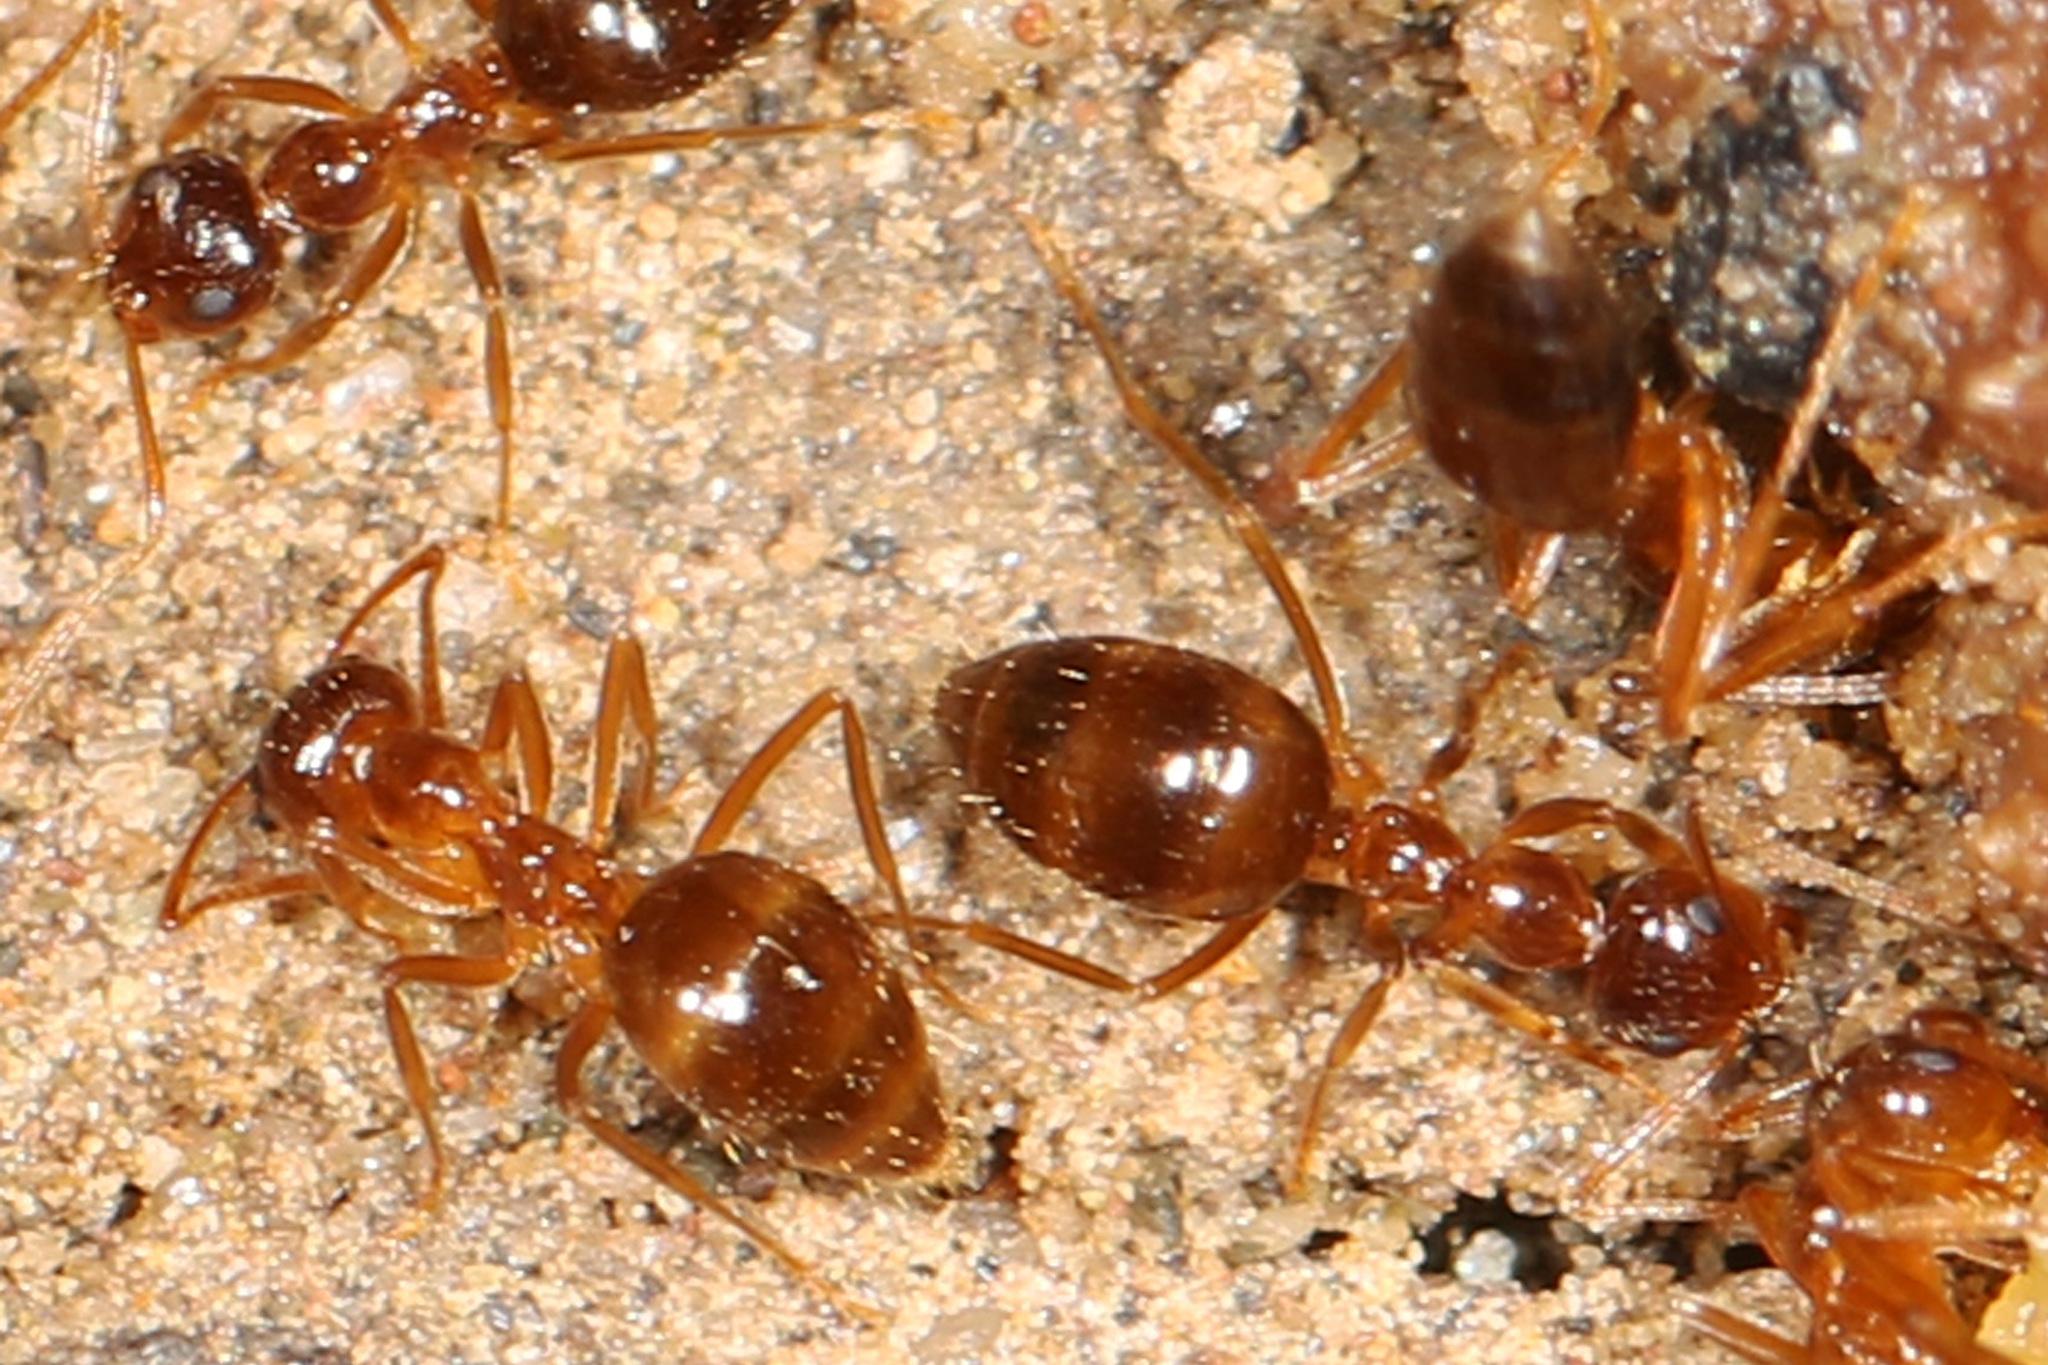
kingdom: Animalia
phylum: Arthropoda
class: Insecta
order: Hymenoptera
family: Formicidae
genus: Prenolepis
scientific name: Prenolepis imparis
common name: Small honey ant
